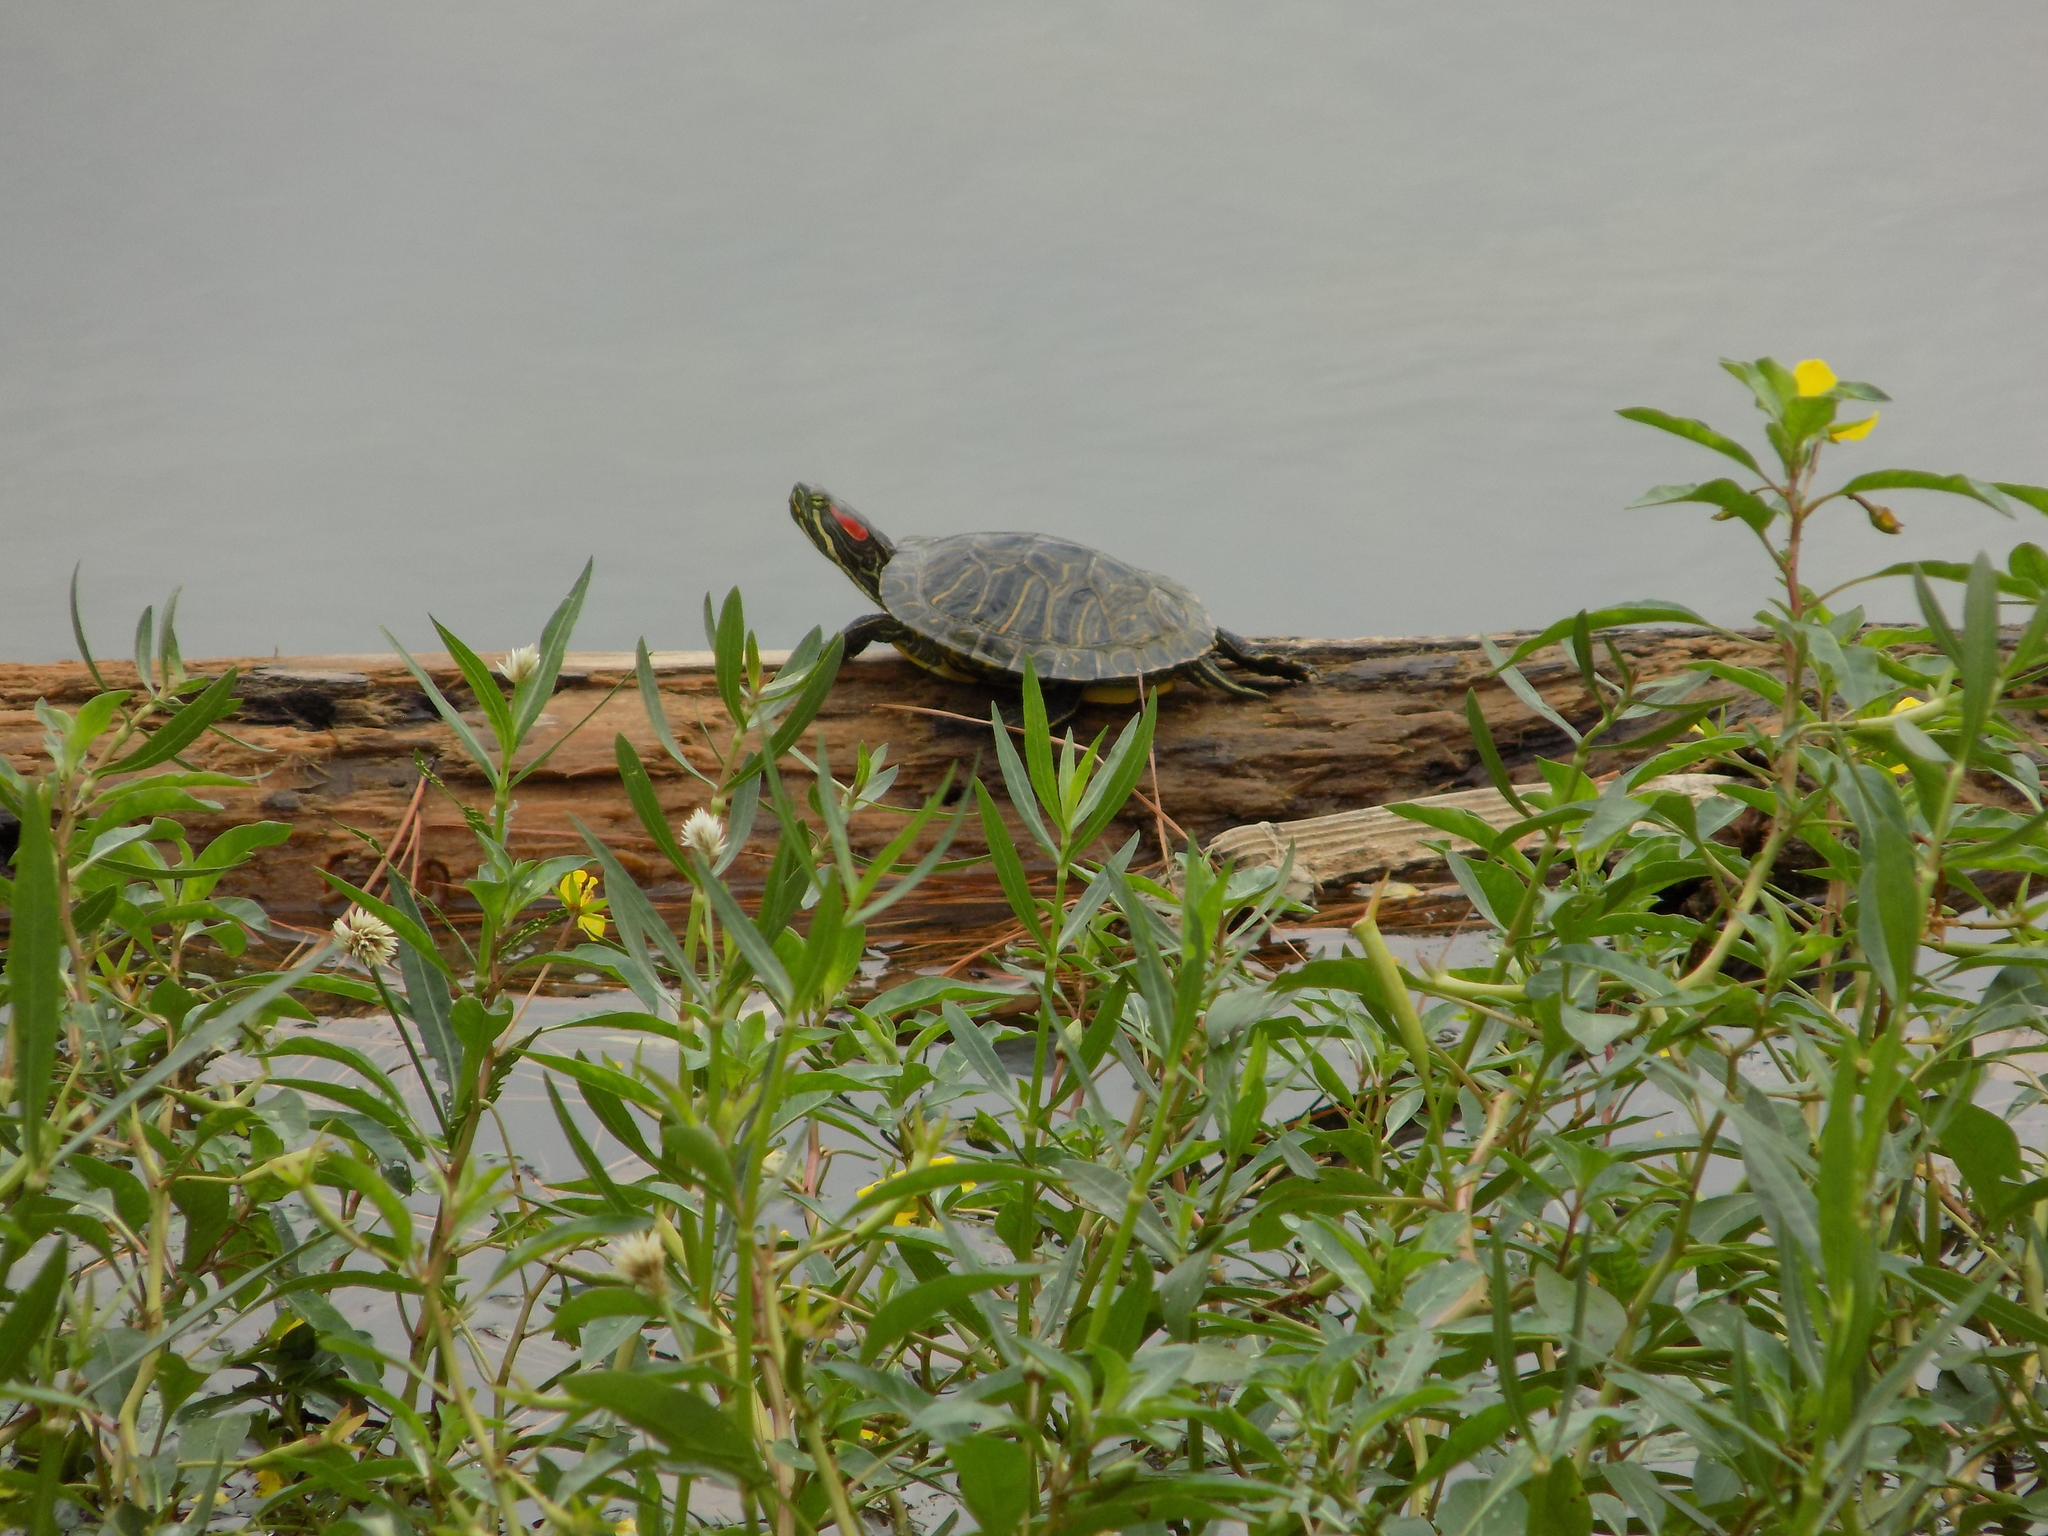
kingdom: Animalia
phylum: Chordata
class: Testudines
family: Emydidae
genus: Trachemys
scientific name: Trachemys scripta
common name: Slider
